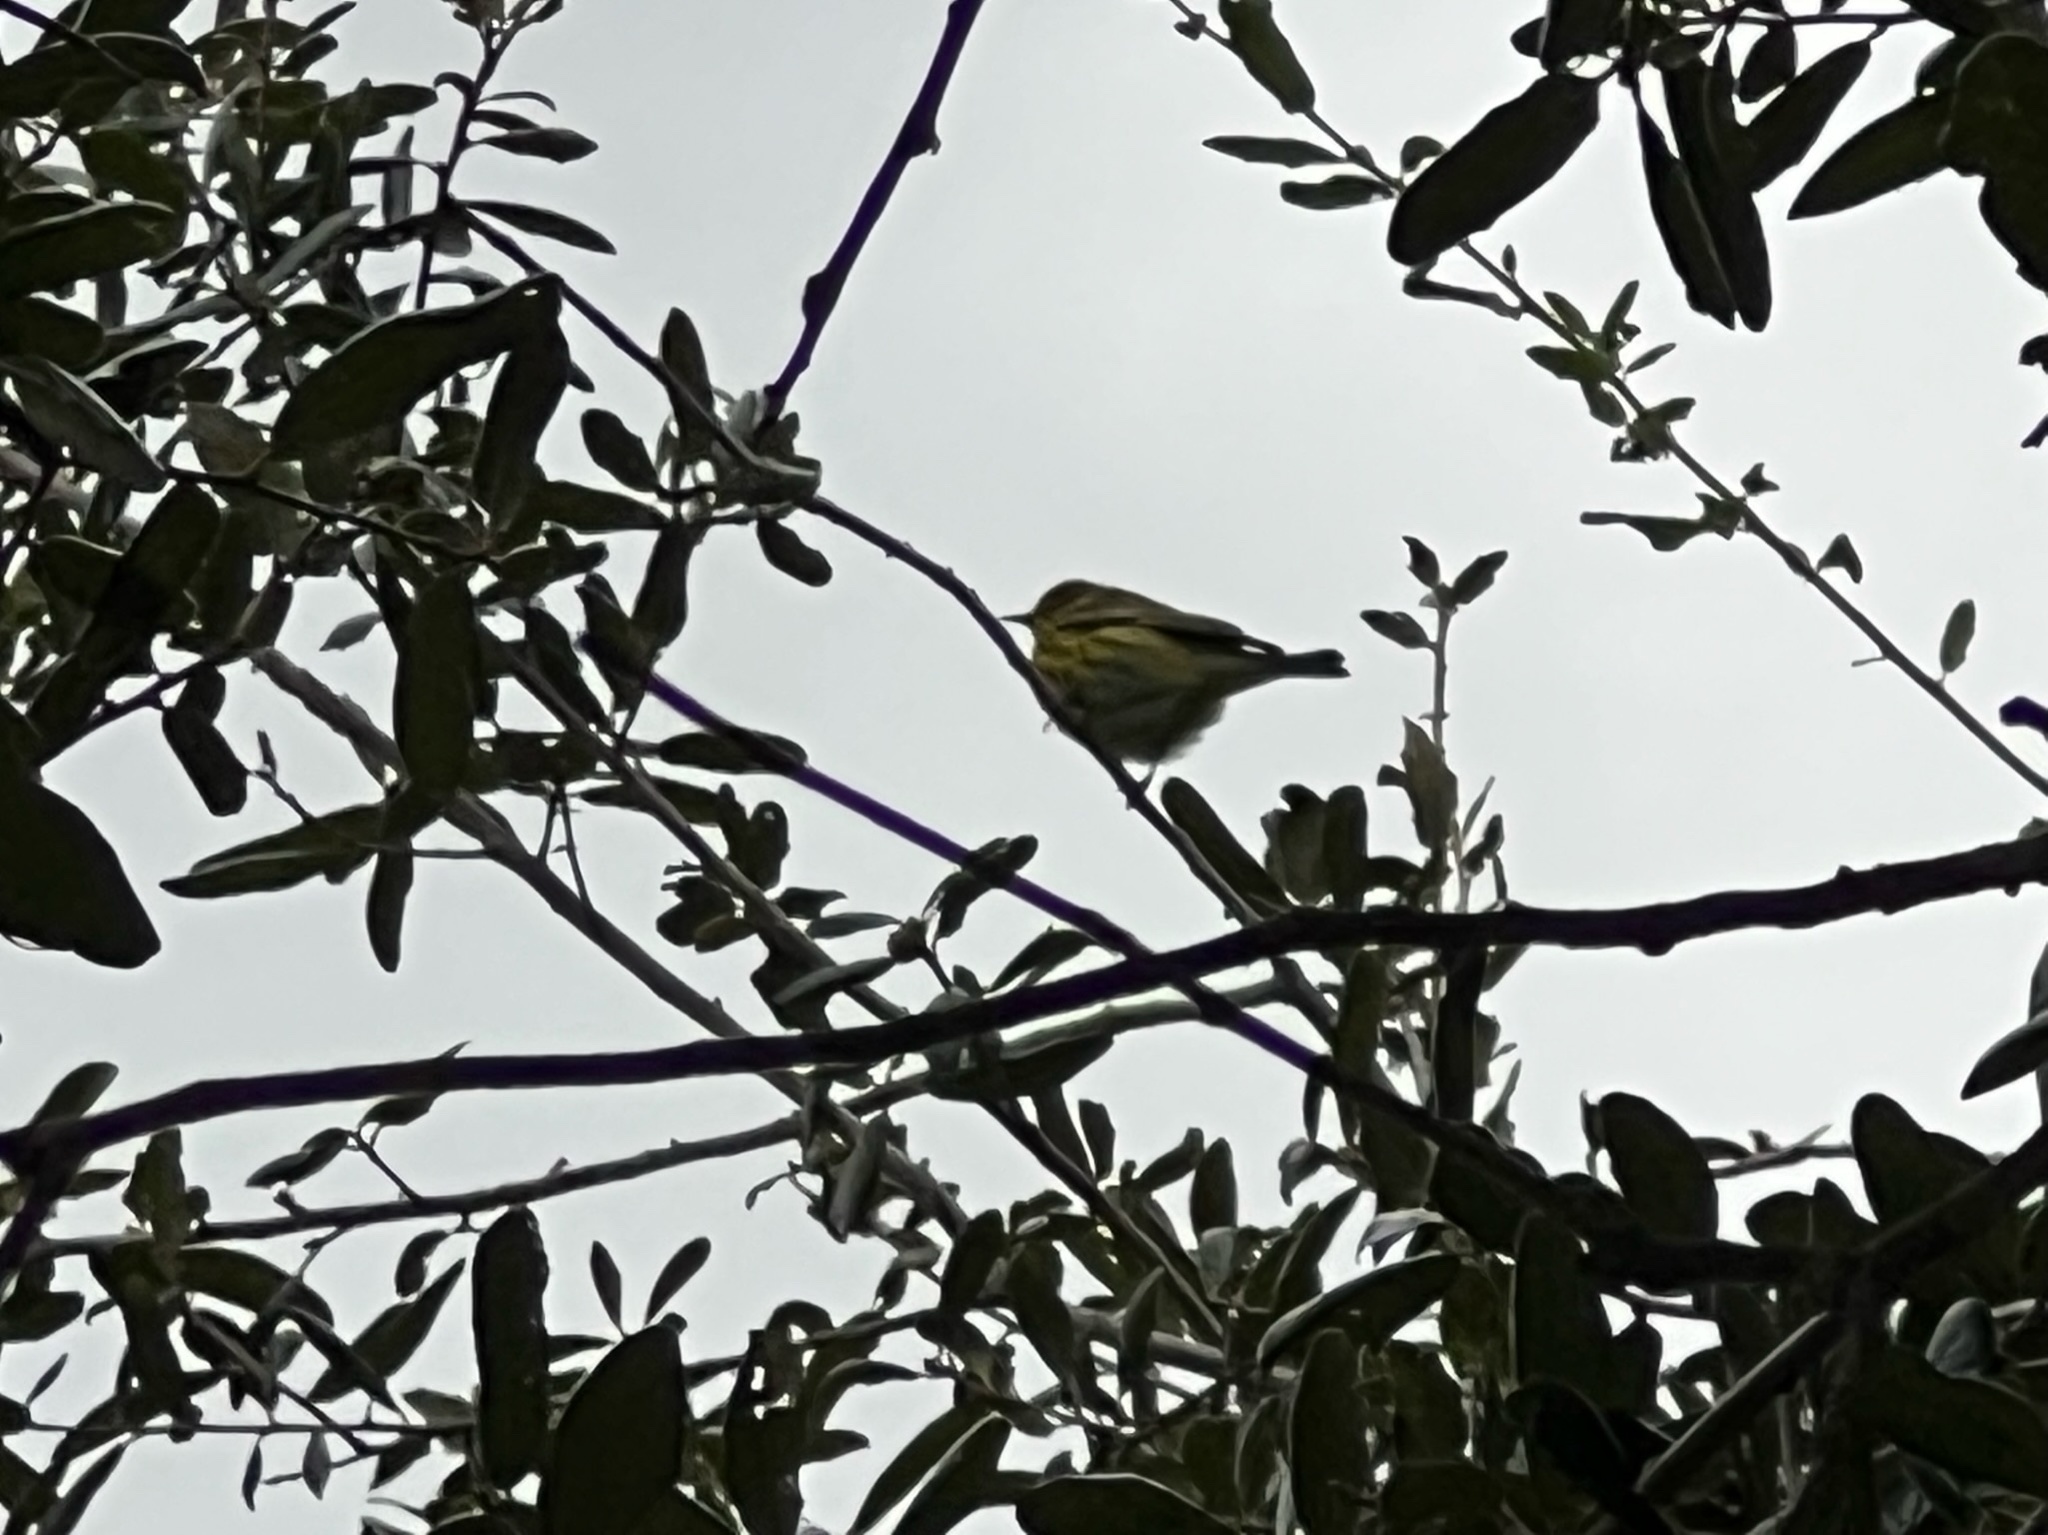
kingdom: Animalia
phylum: Chordata
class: Aves
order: Passeriformes
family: Parulidae
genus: Setophaga
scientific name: Setophaga tigrina
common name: Cape may warbler
